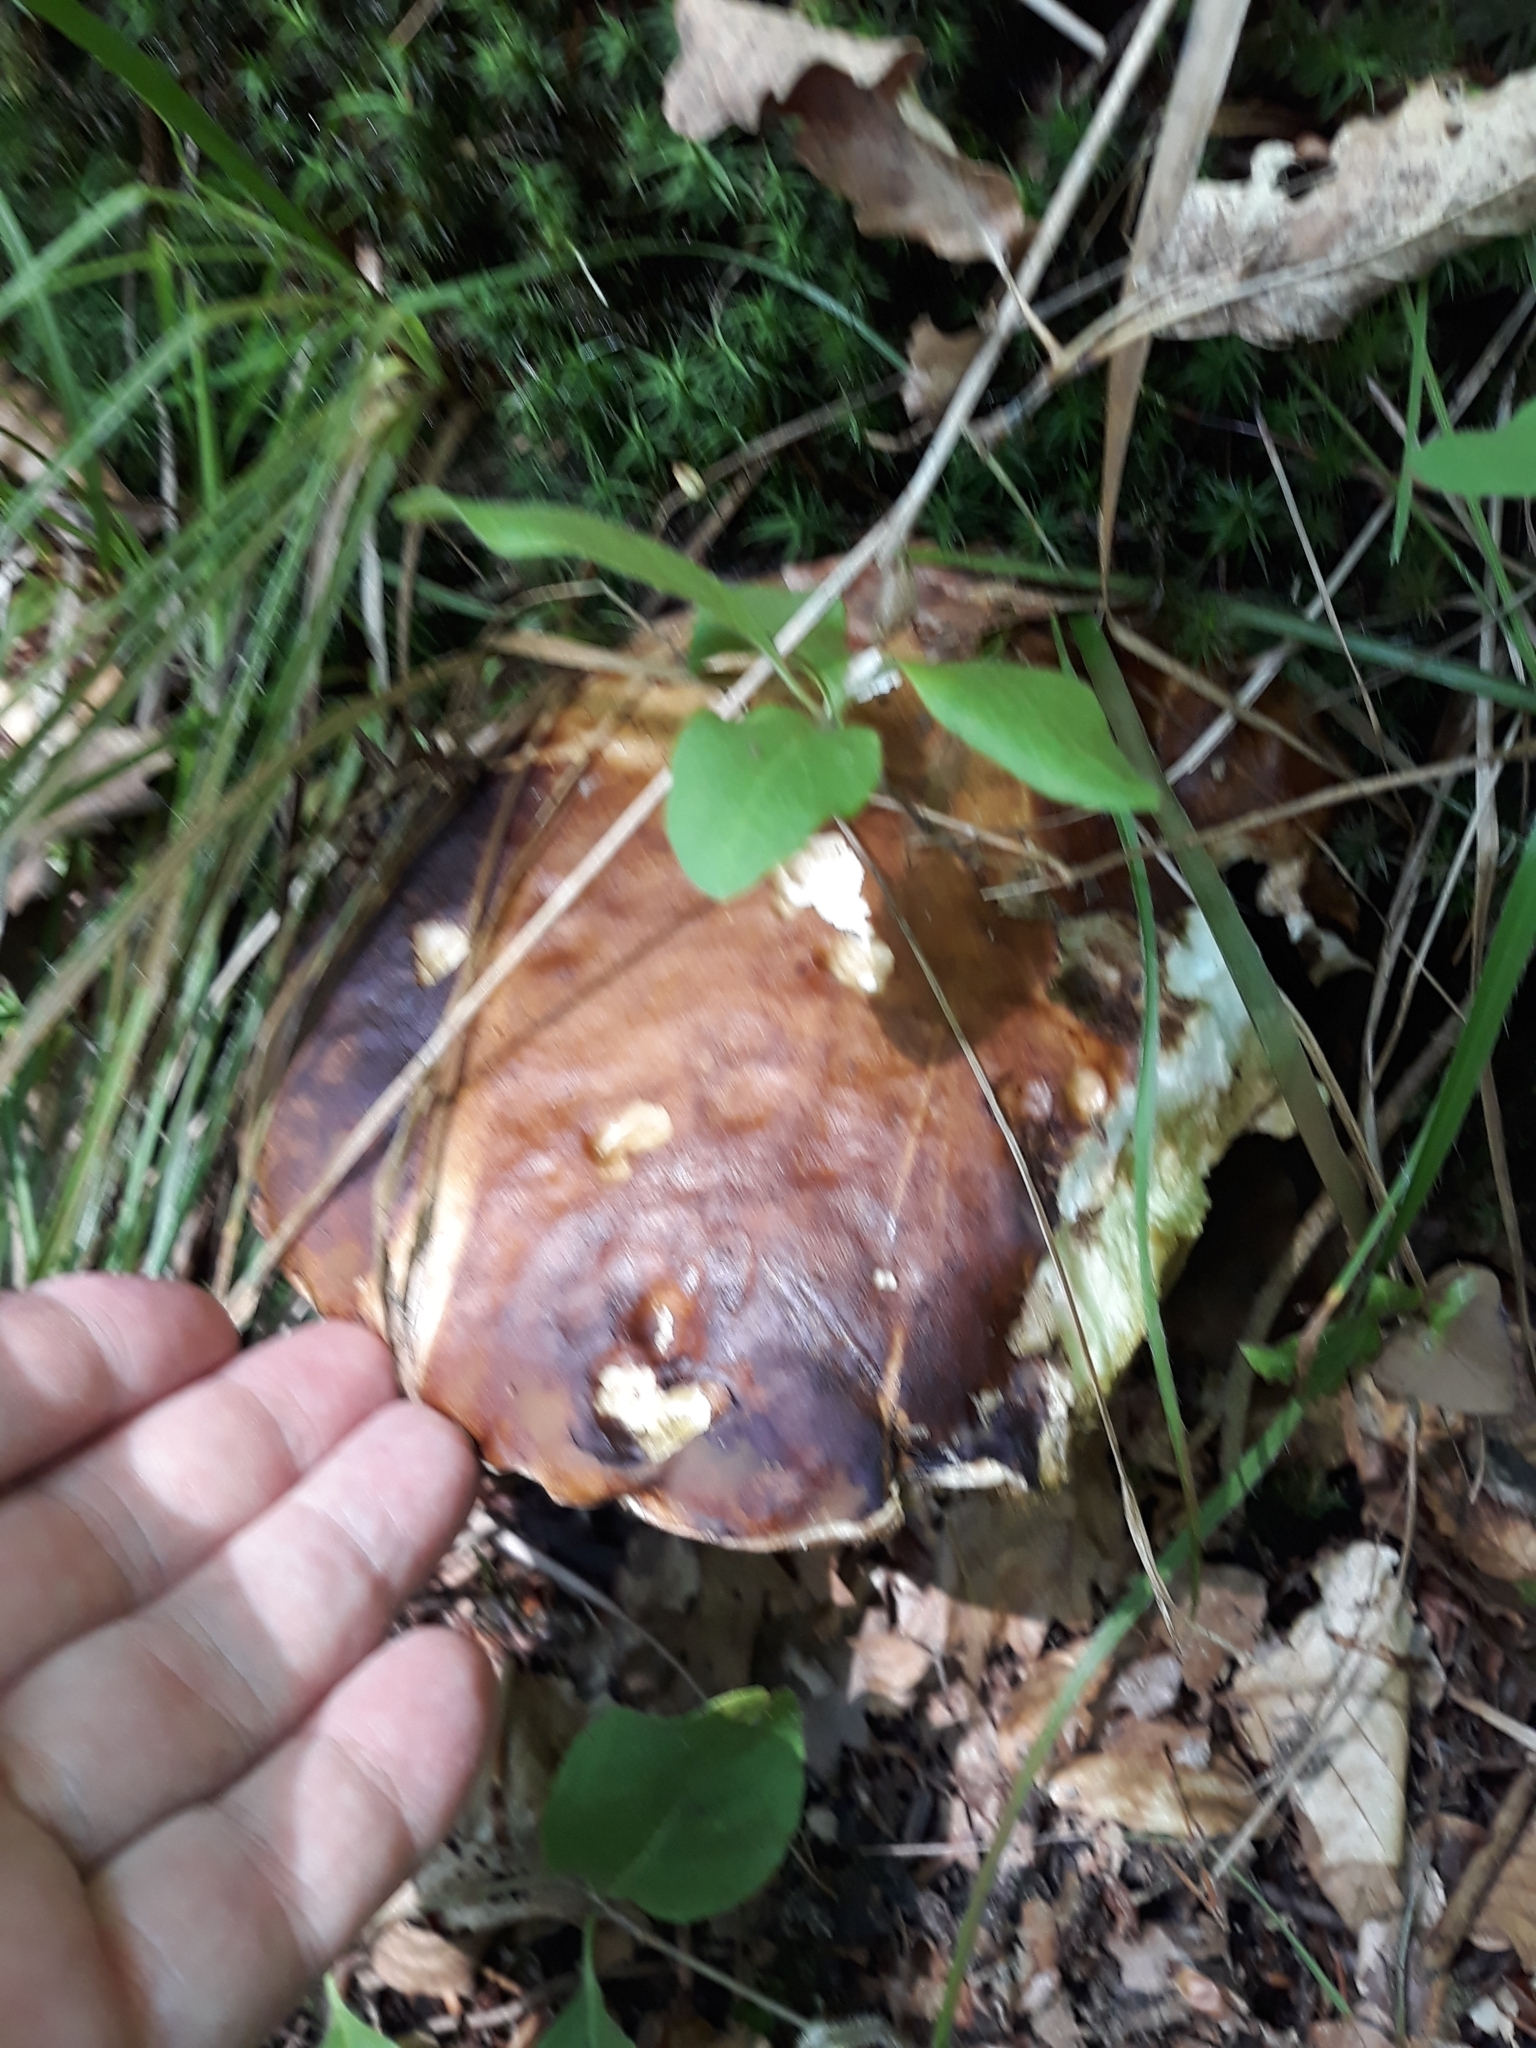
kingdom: Fungi
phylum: Basidiomycota
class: Agaricomycetes
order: Boletales
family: Boletaceae
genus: Boletus
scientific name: Boletus edulis
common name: Cep
